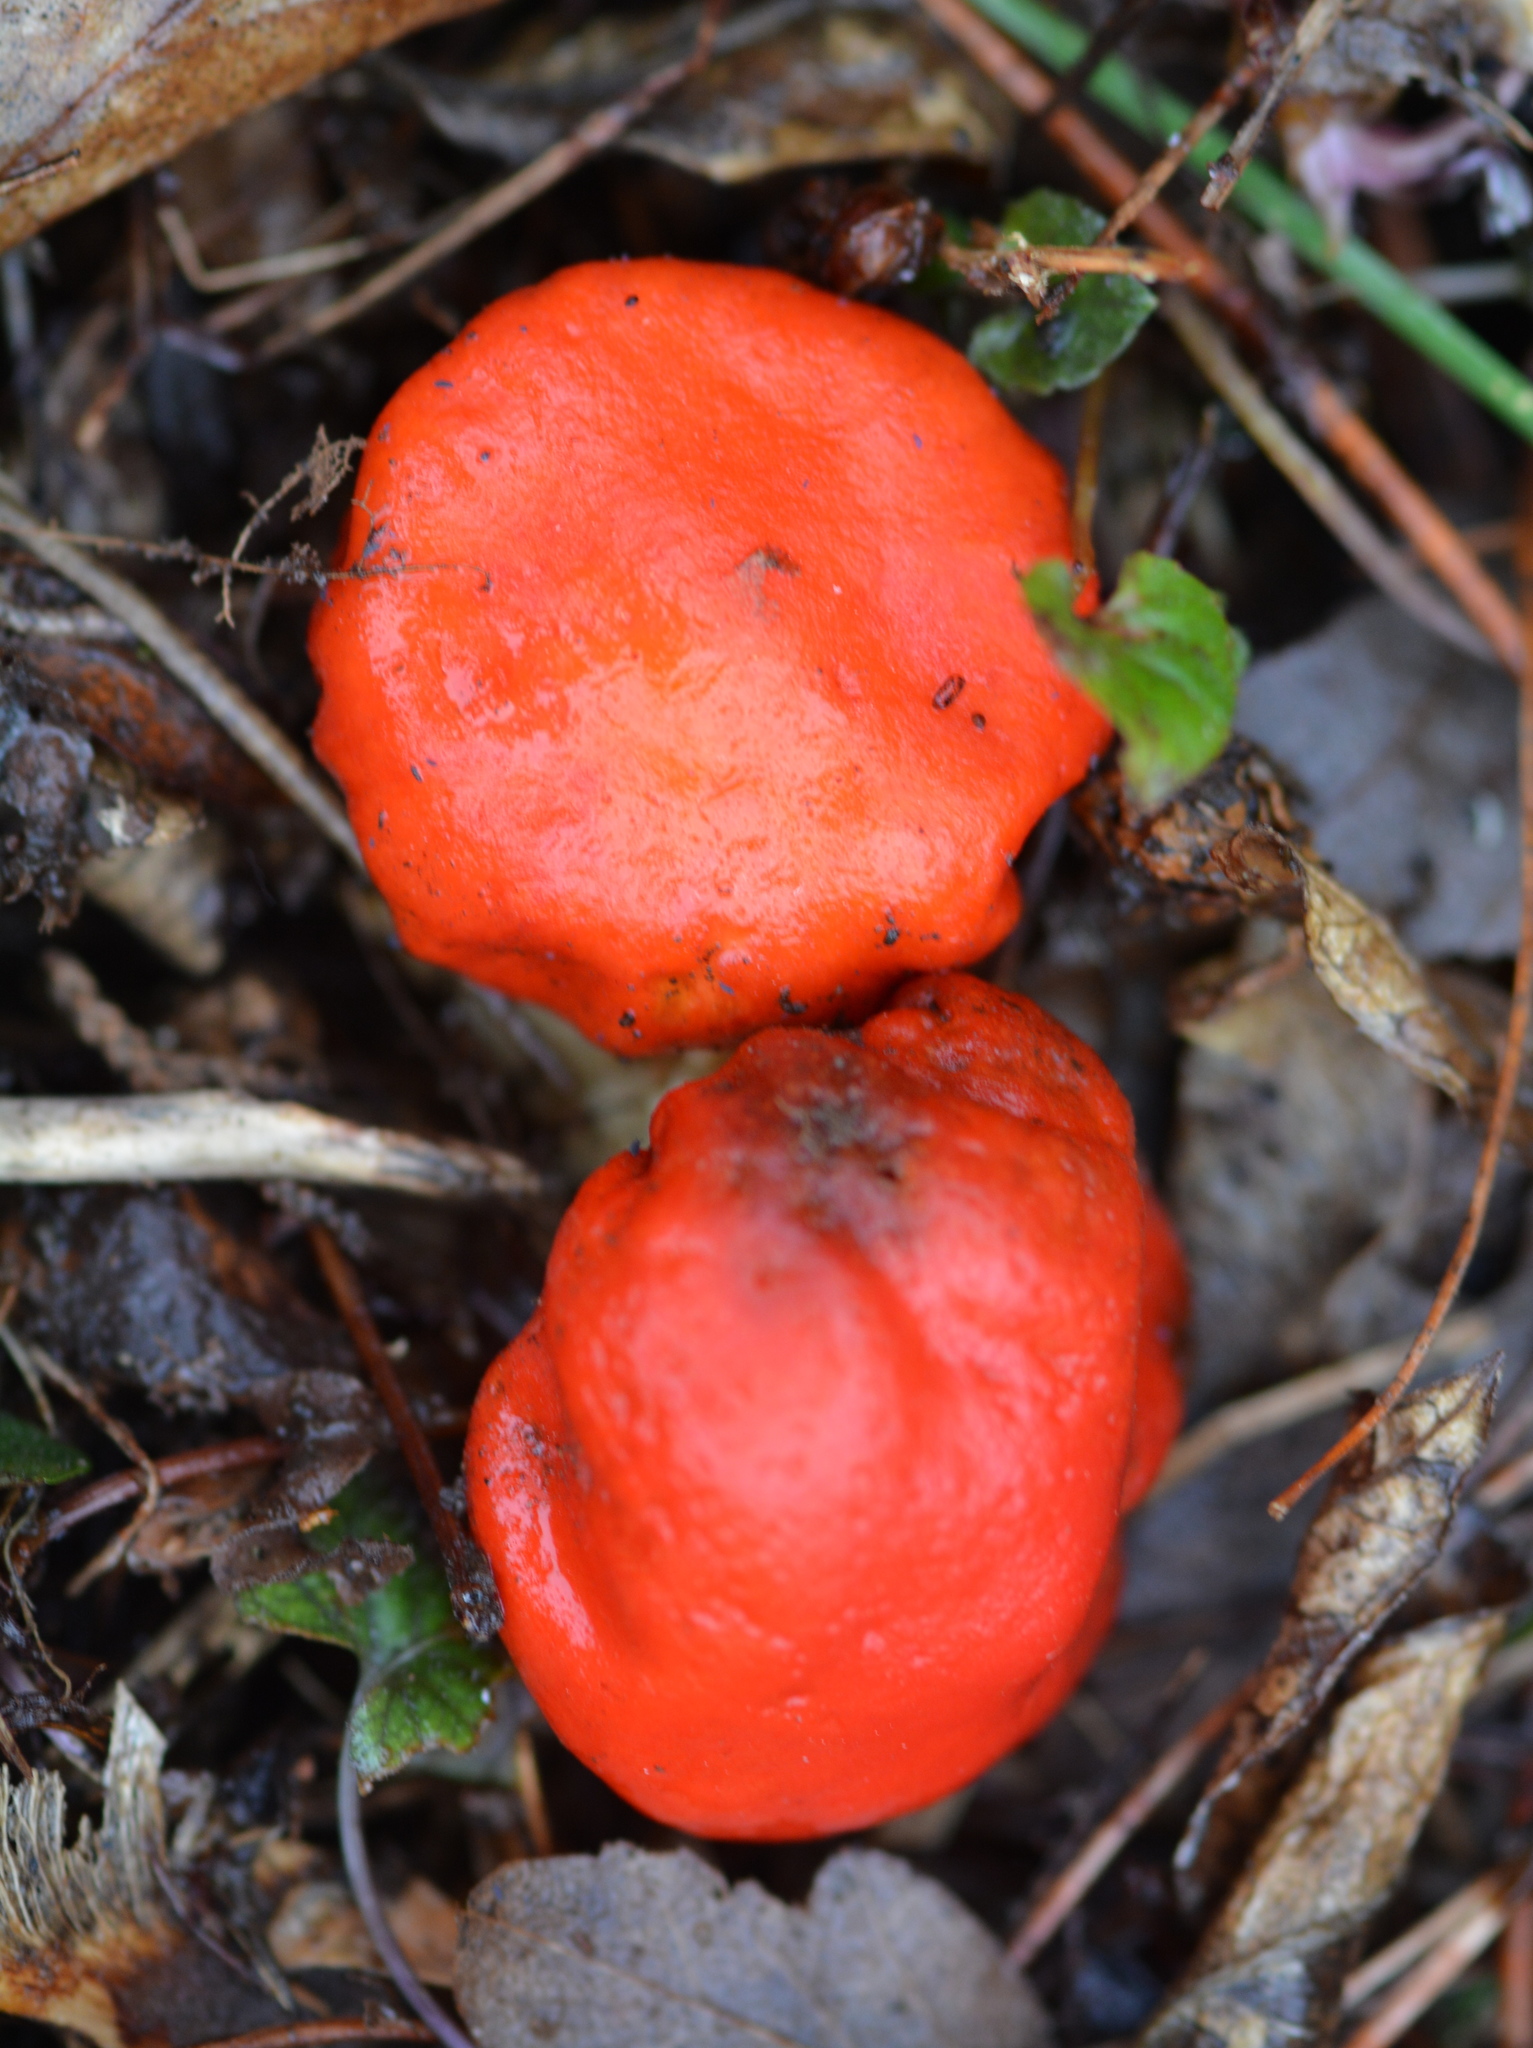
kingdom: Fungi
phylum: Basidiomycota
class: Agaricomycetes
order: Agaricales
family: Strophariaceae
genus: Leratiomyces
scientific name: Leratiomyces erythrocephalus
